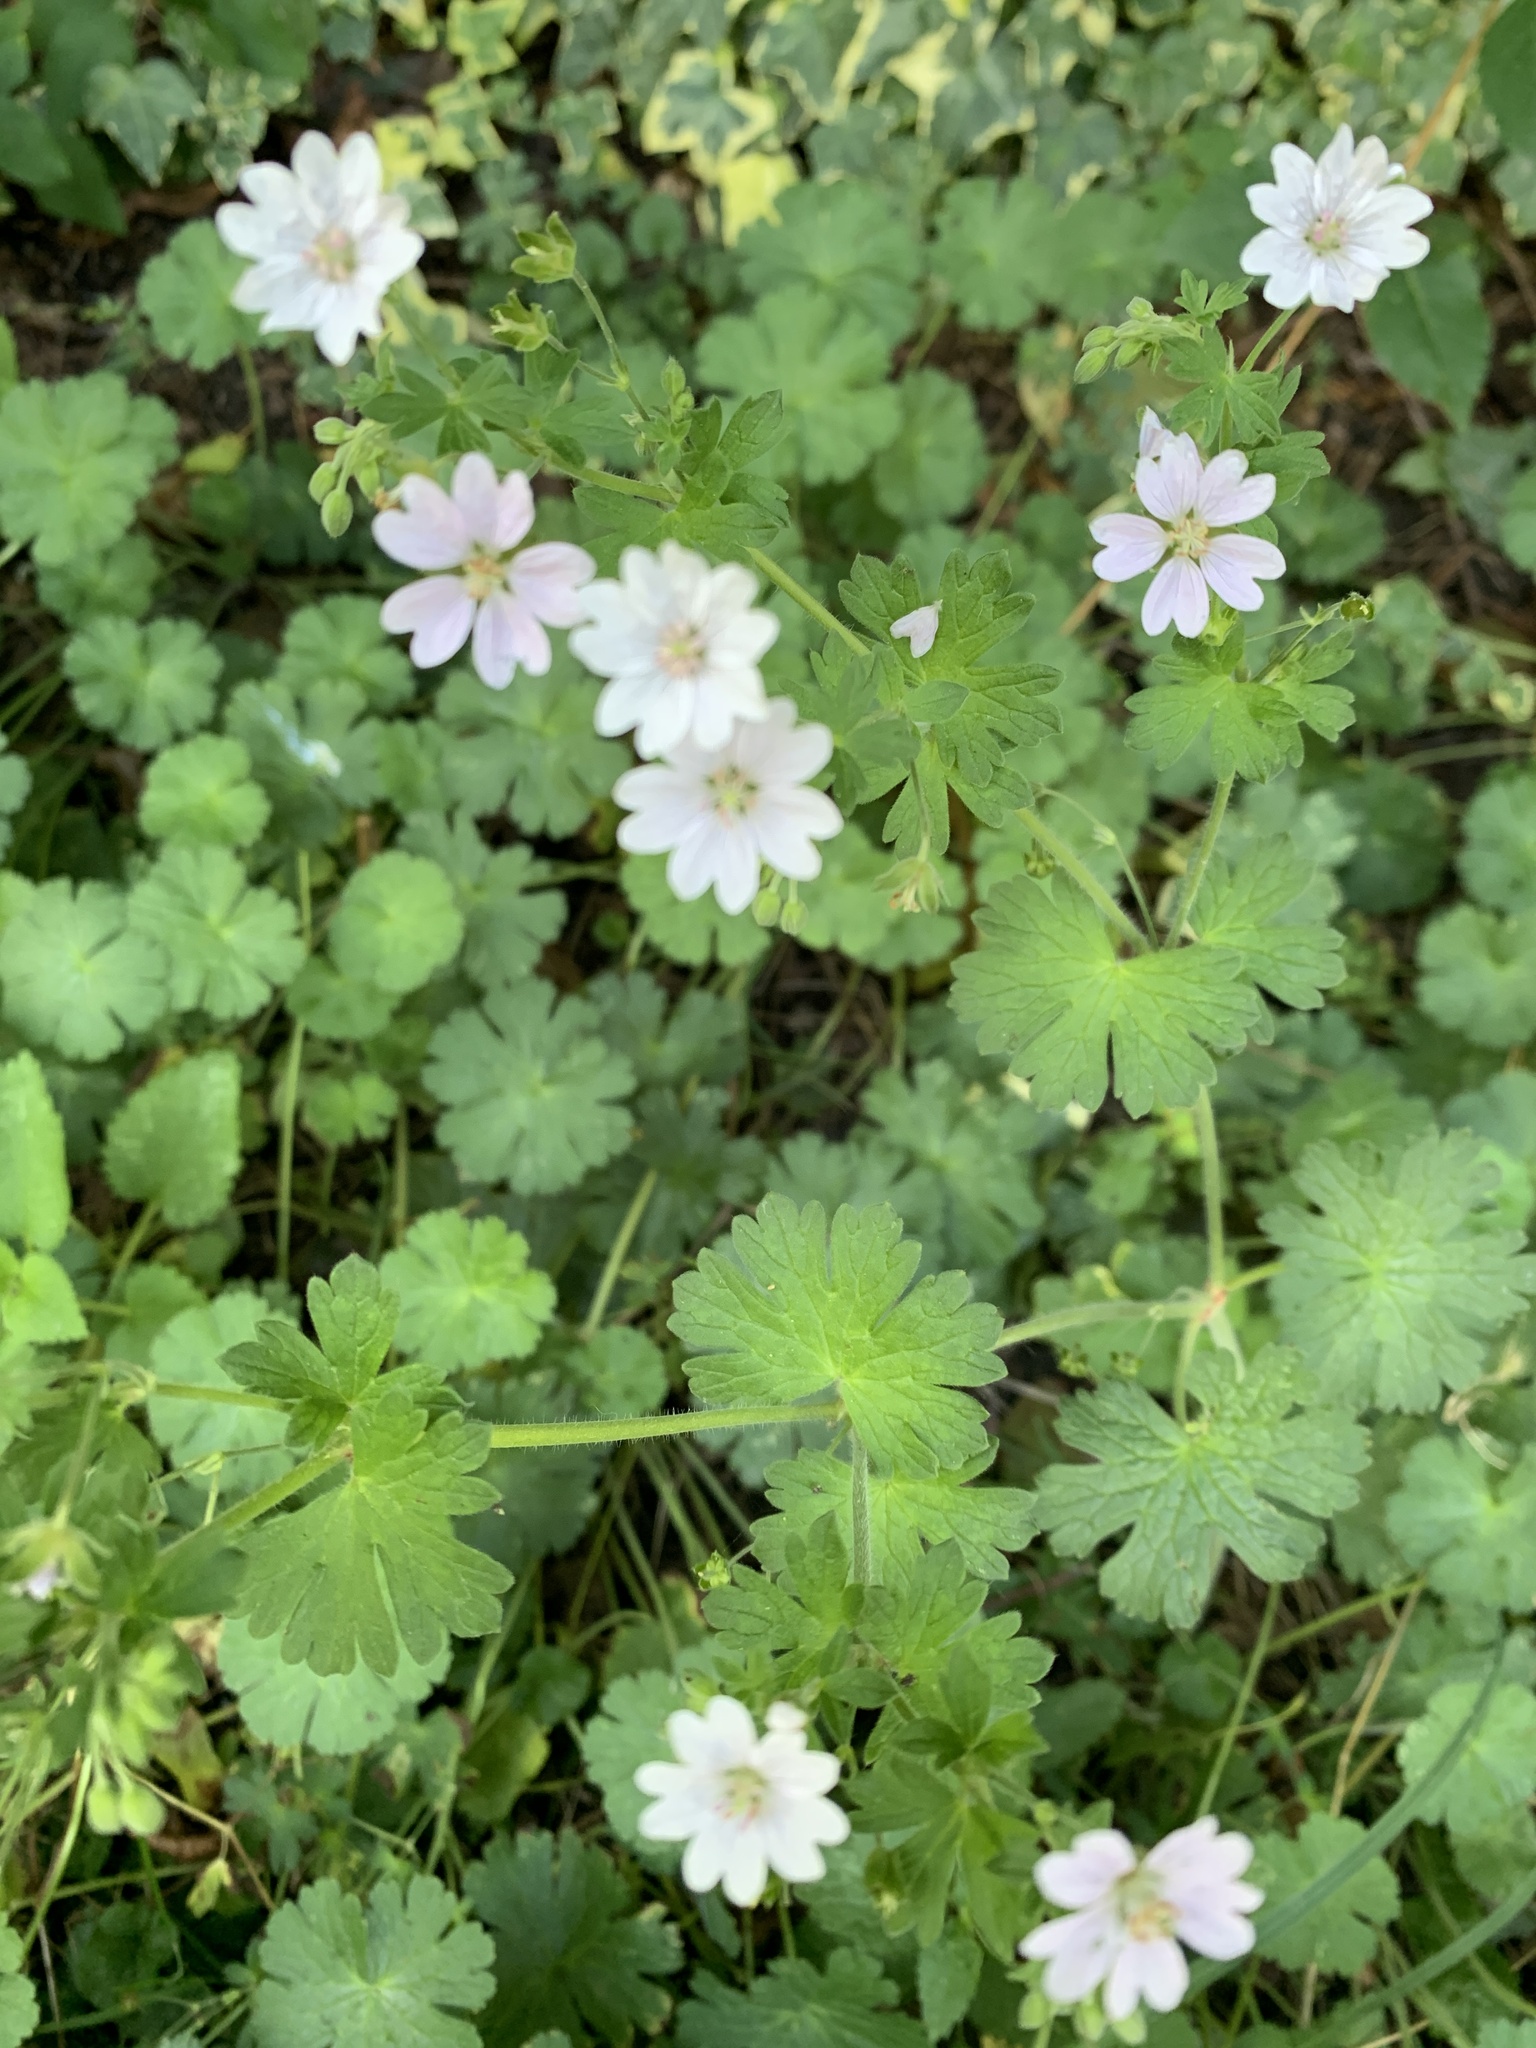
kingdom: Plantae
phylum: Tracheophyta
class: Magnoliopsida
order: Geraniales
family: Geraniaceae
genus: Geranium
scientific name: Geranium pyrenaicum
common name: Hedgerow crane's-bill
